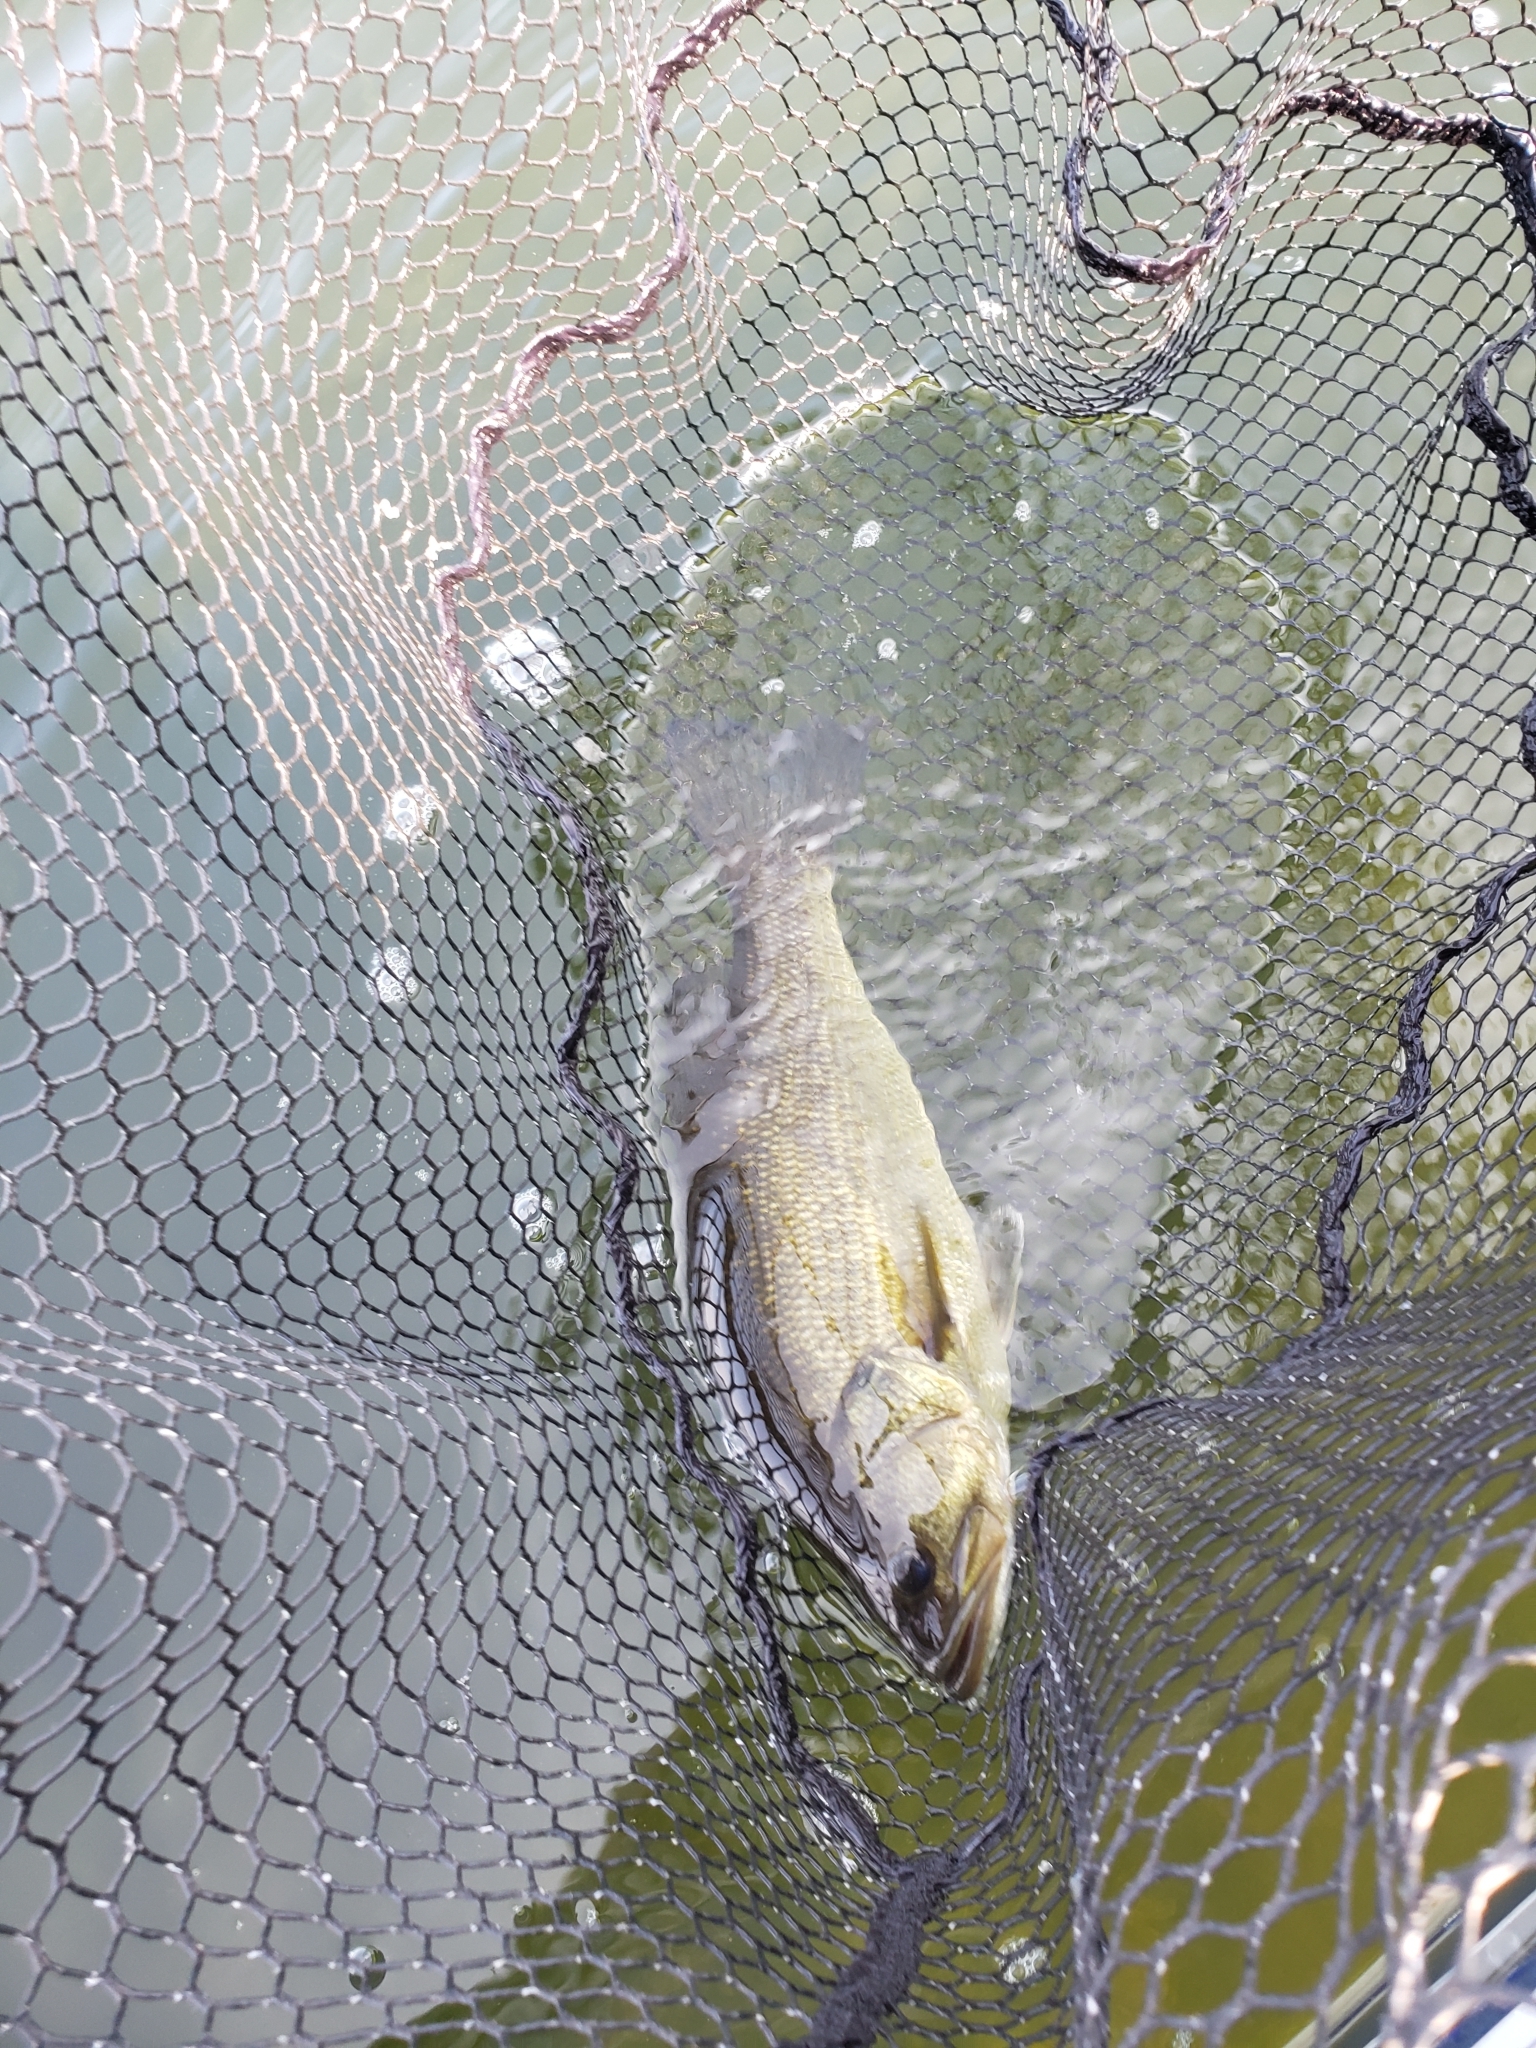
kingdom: Animalia
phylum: Chordata
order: Perciformes
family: Centrarchidae
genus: Micropterus
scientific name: Micropterus
